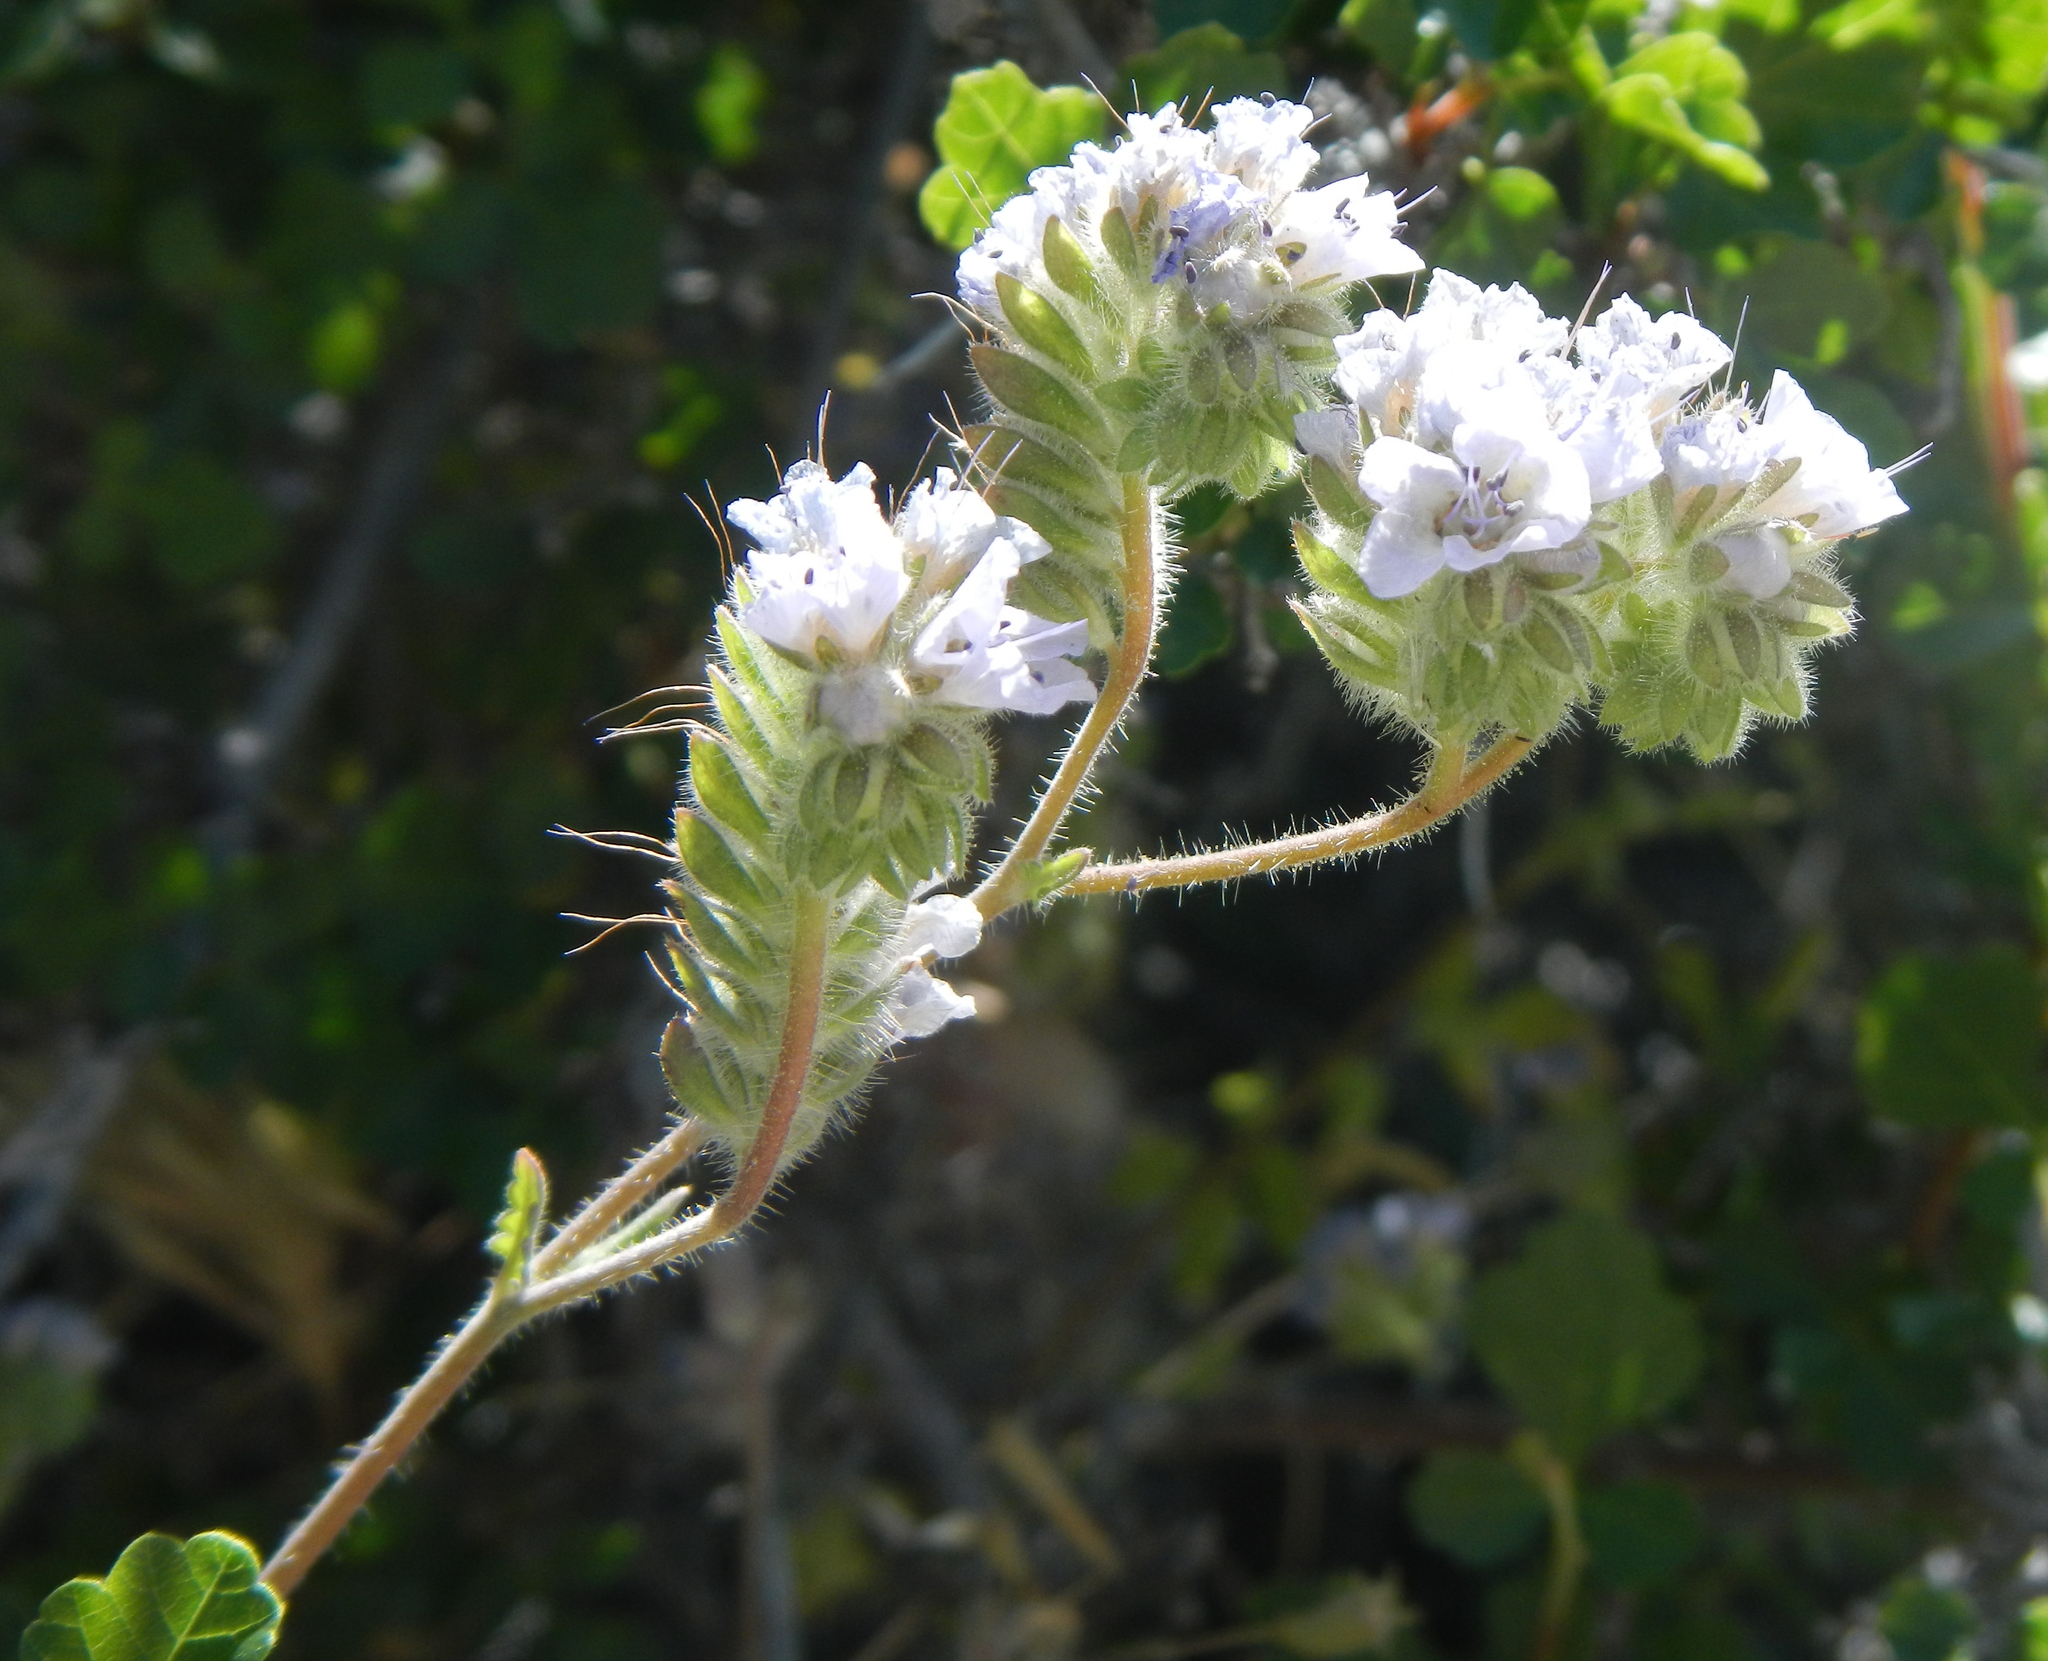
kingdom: Plantae
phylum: Tracheophyta
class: Magnoliopsida
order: Boraginales
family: Hydrophyllaceae
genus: Phacelia
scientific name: Phacelia distans
